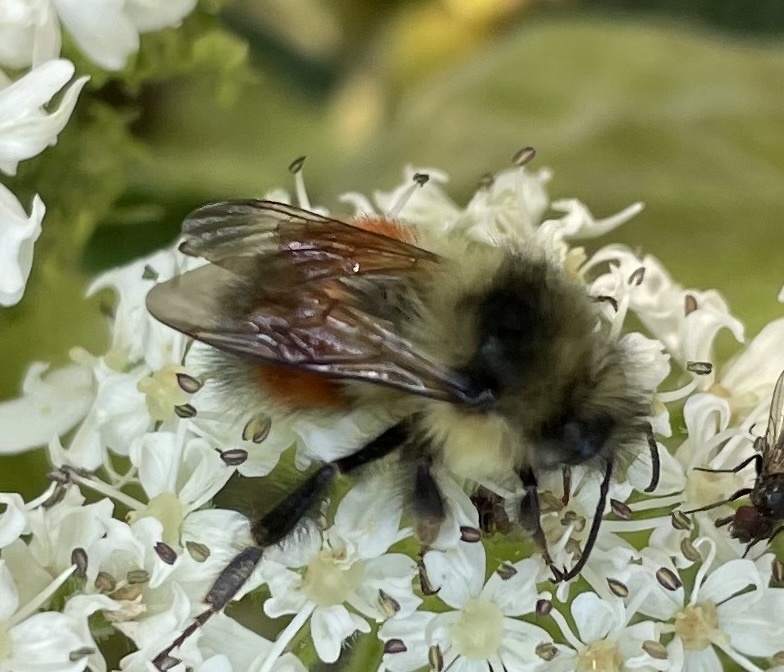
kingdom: Animalia
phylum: Arthropoda
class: Insecta
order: Hymenoptera
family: Apidae
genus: Bombus
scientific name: Bombus melanopygus
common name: Black tail bumble bee
